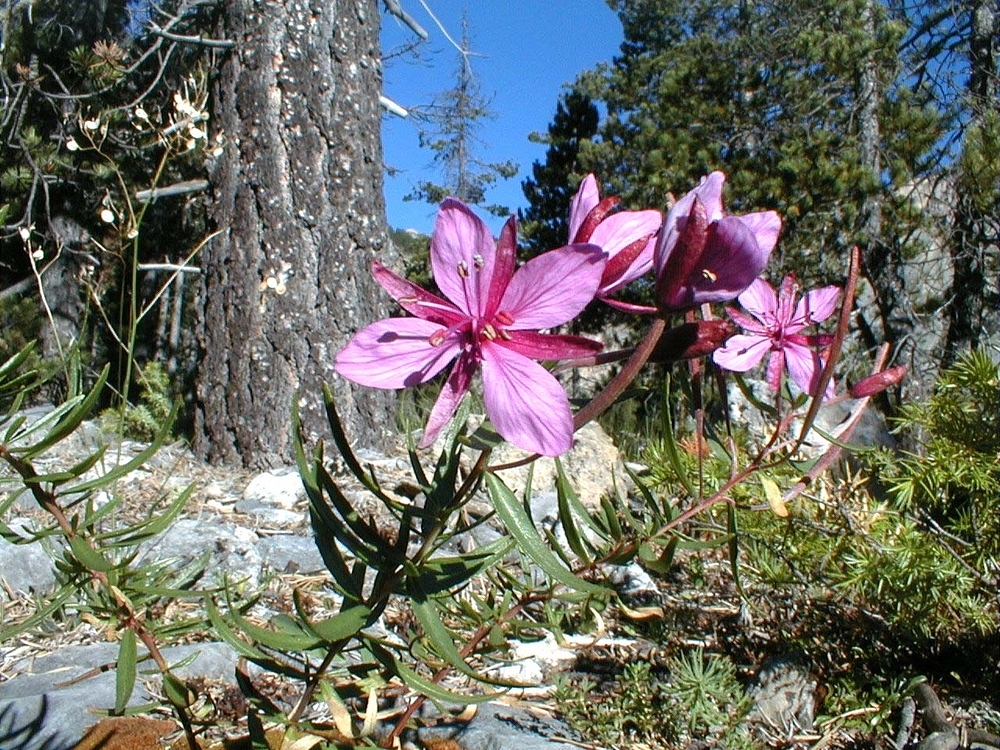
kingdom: Plantae
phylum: Tracheophyta
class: Magnoliopsida
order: Myrtales
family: Onagraceae
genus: Chamaenerion
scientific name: Chamaenerion fleischeri
